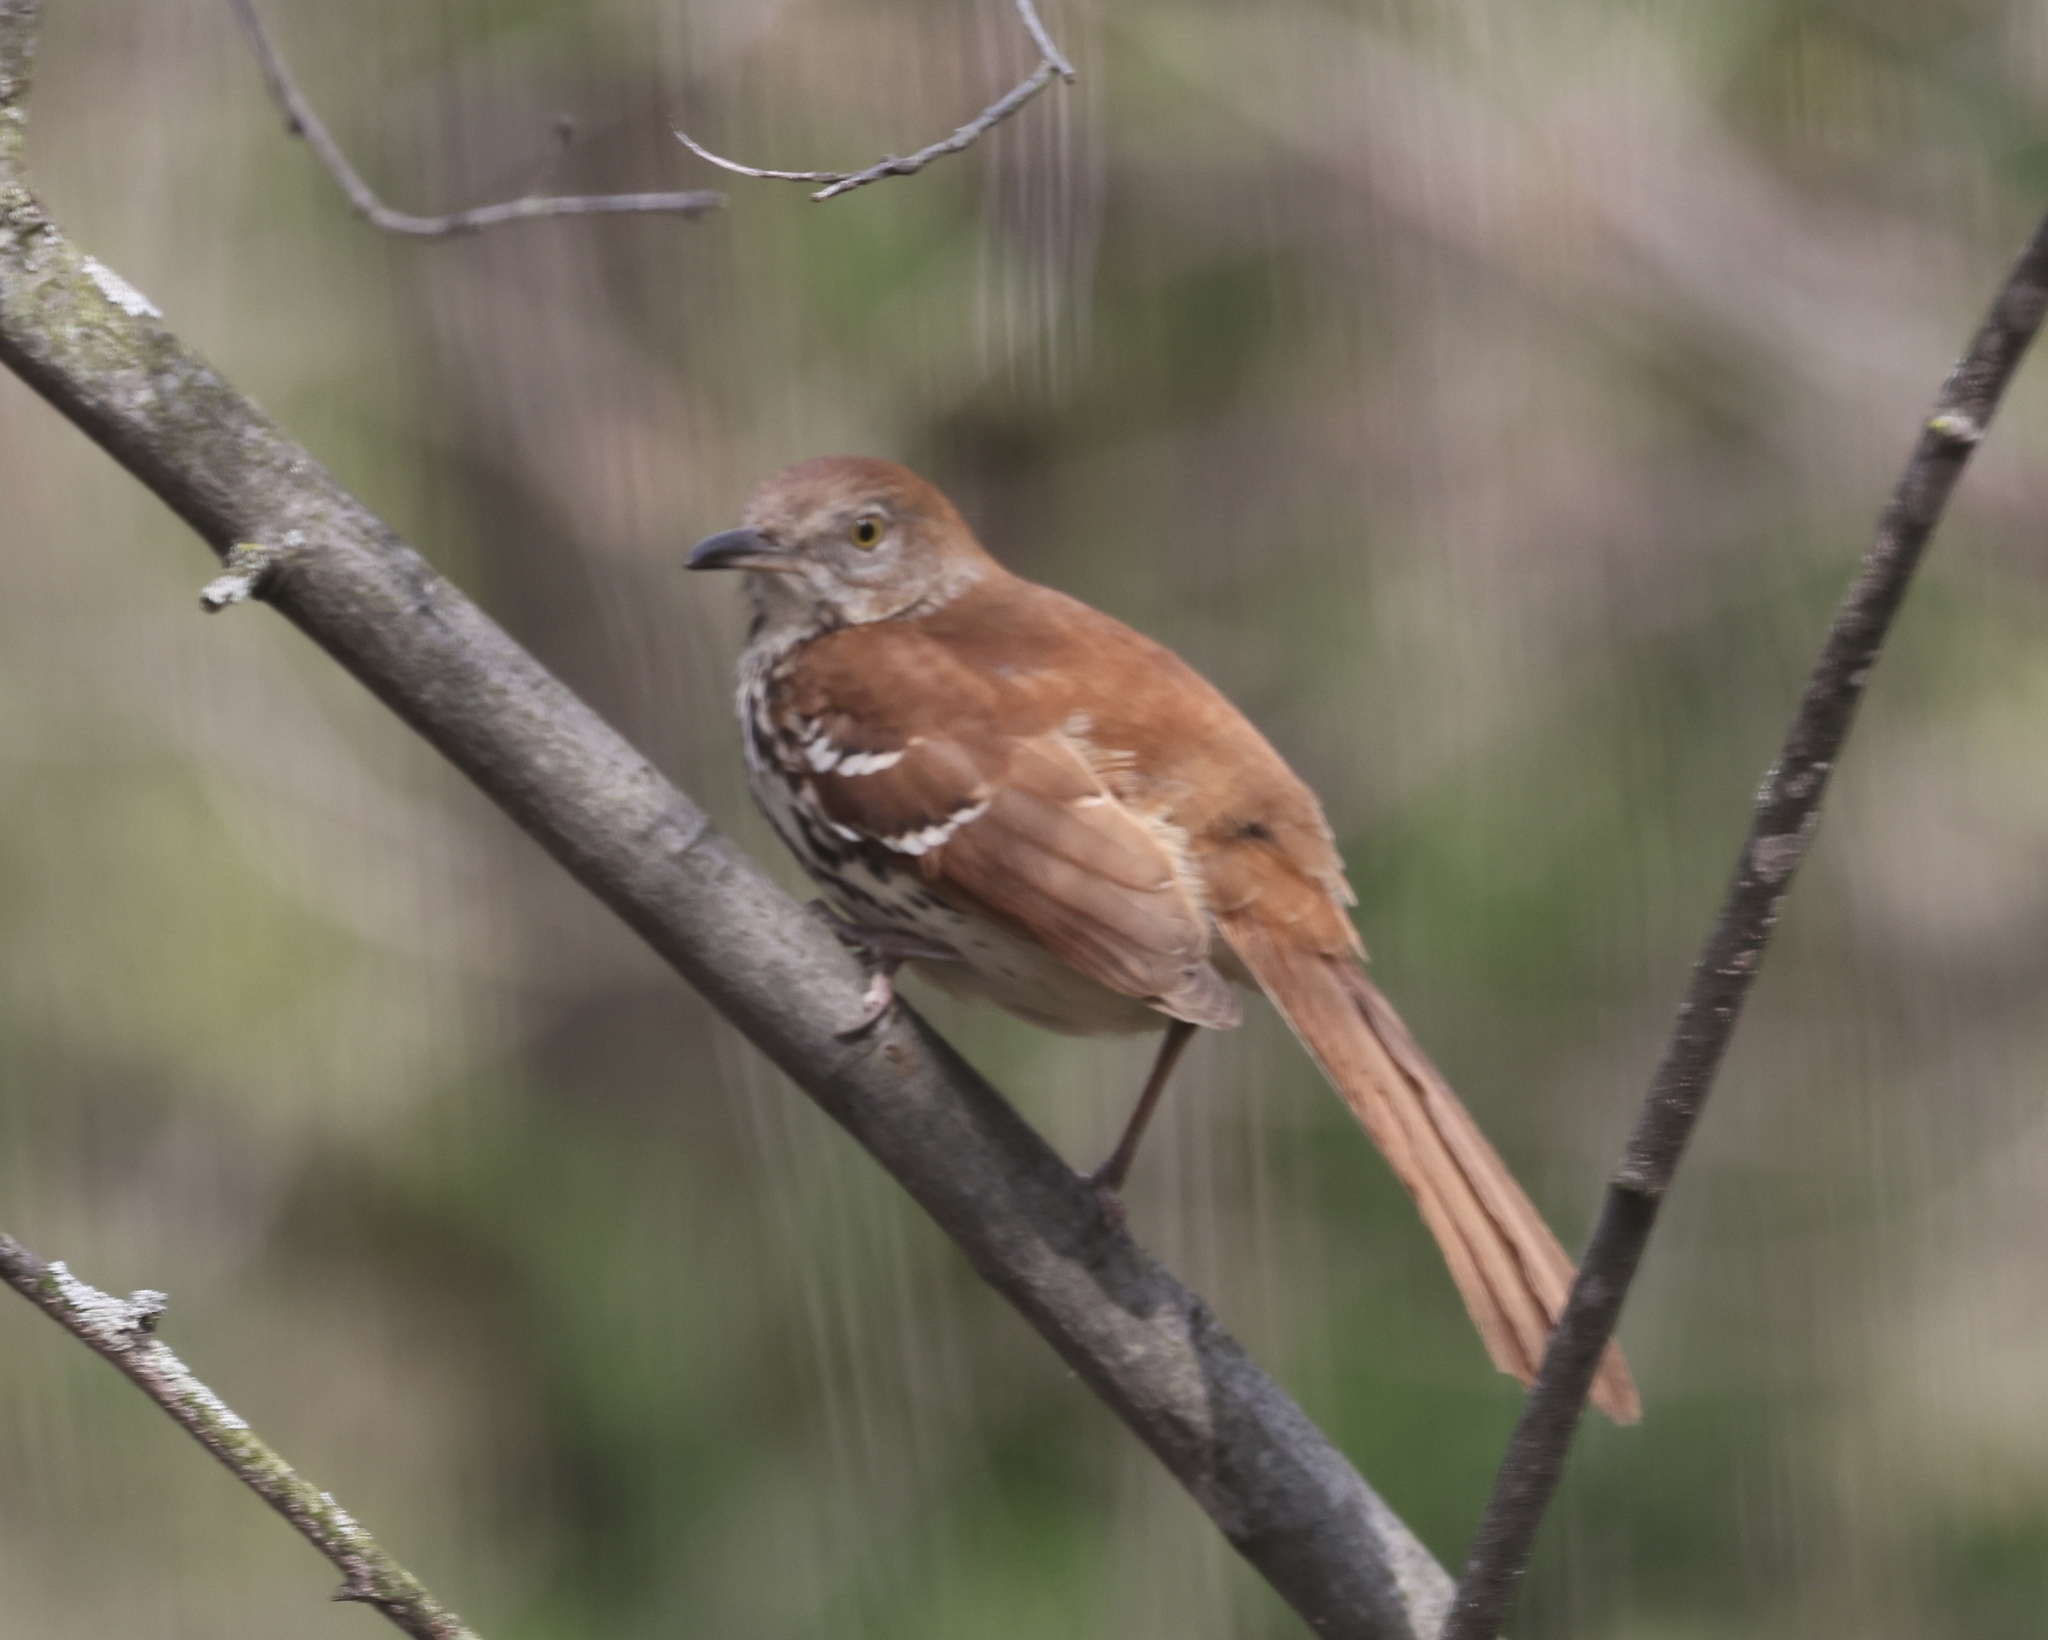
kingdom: Animalia
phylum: Chordata
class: Aves
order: Passeriformes
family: Mimidae
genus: Toxostoma
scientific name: Toxostoma rufum
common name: Brown thrasher
